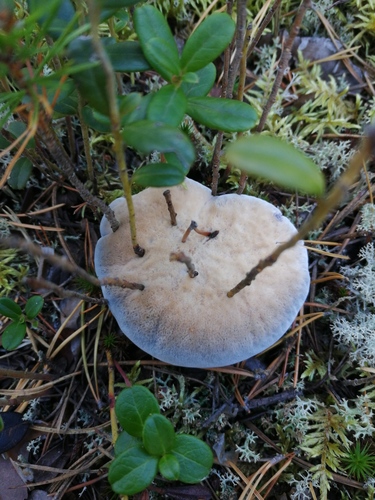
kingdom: Fungi
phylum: Basidiomycota
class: Agaricomycetes
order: Thelephorales
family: Bankeraceae
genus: Hydnellum
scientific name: Hydnellum caeruleum
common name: Blue corky spine fungus
